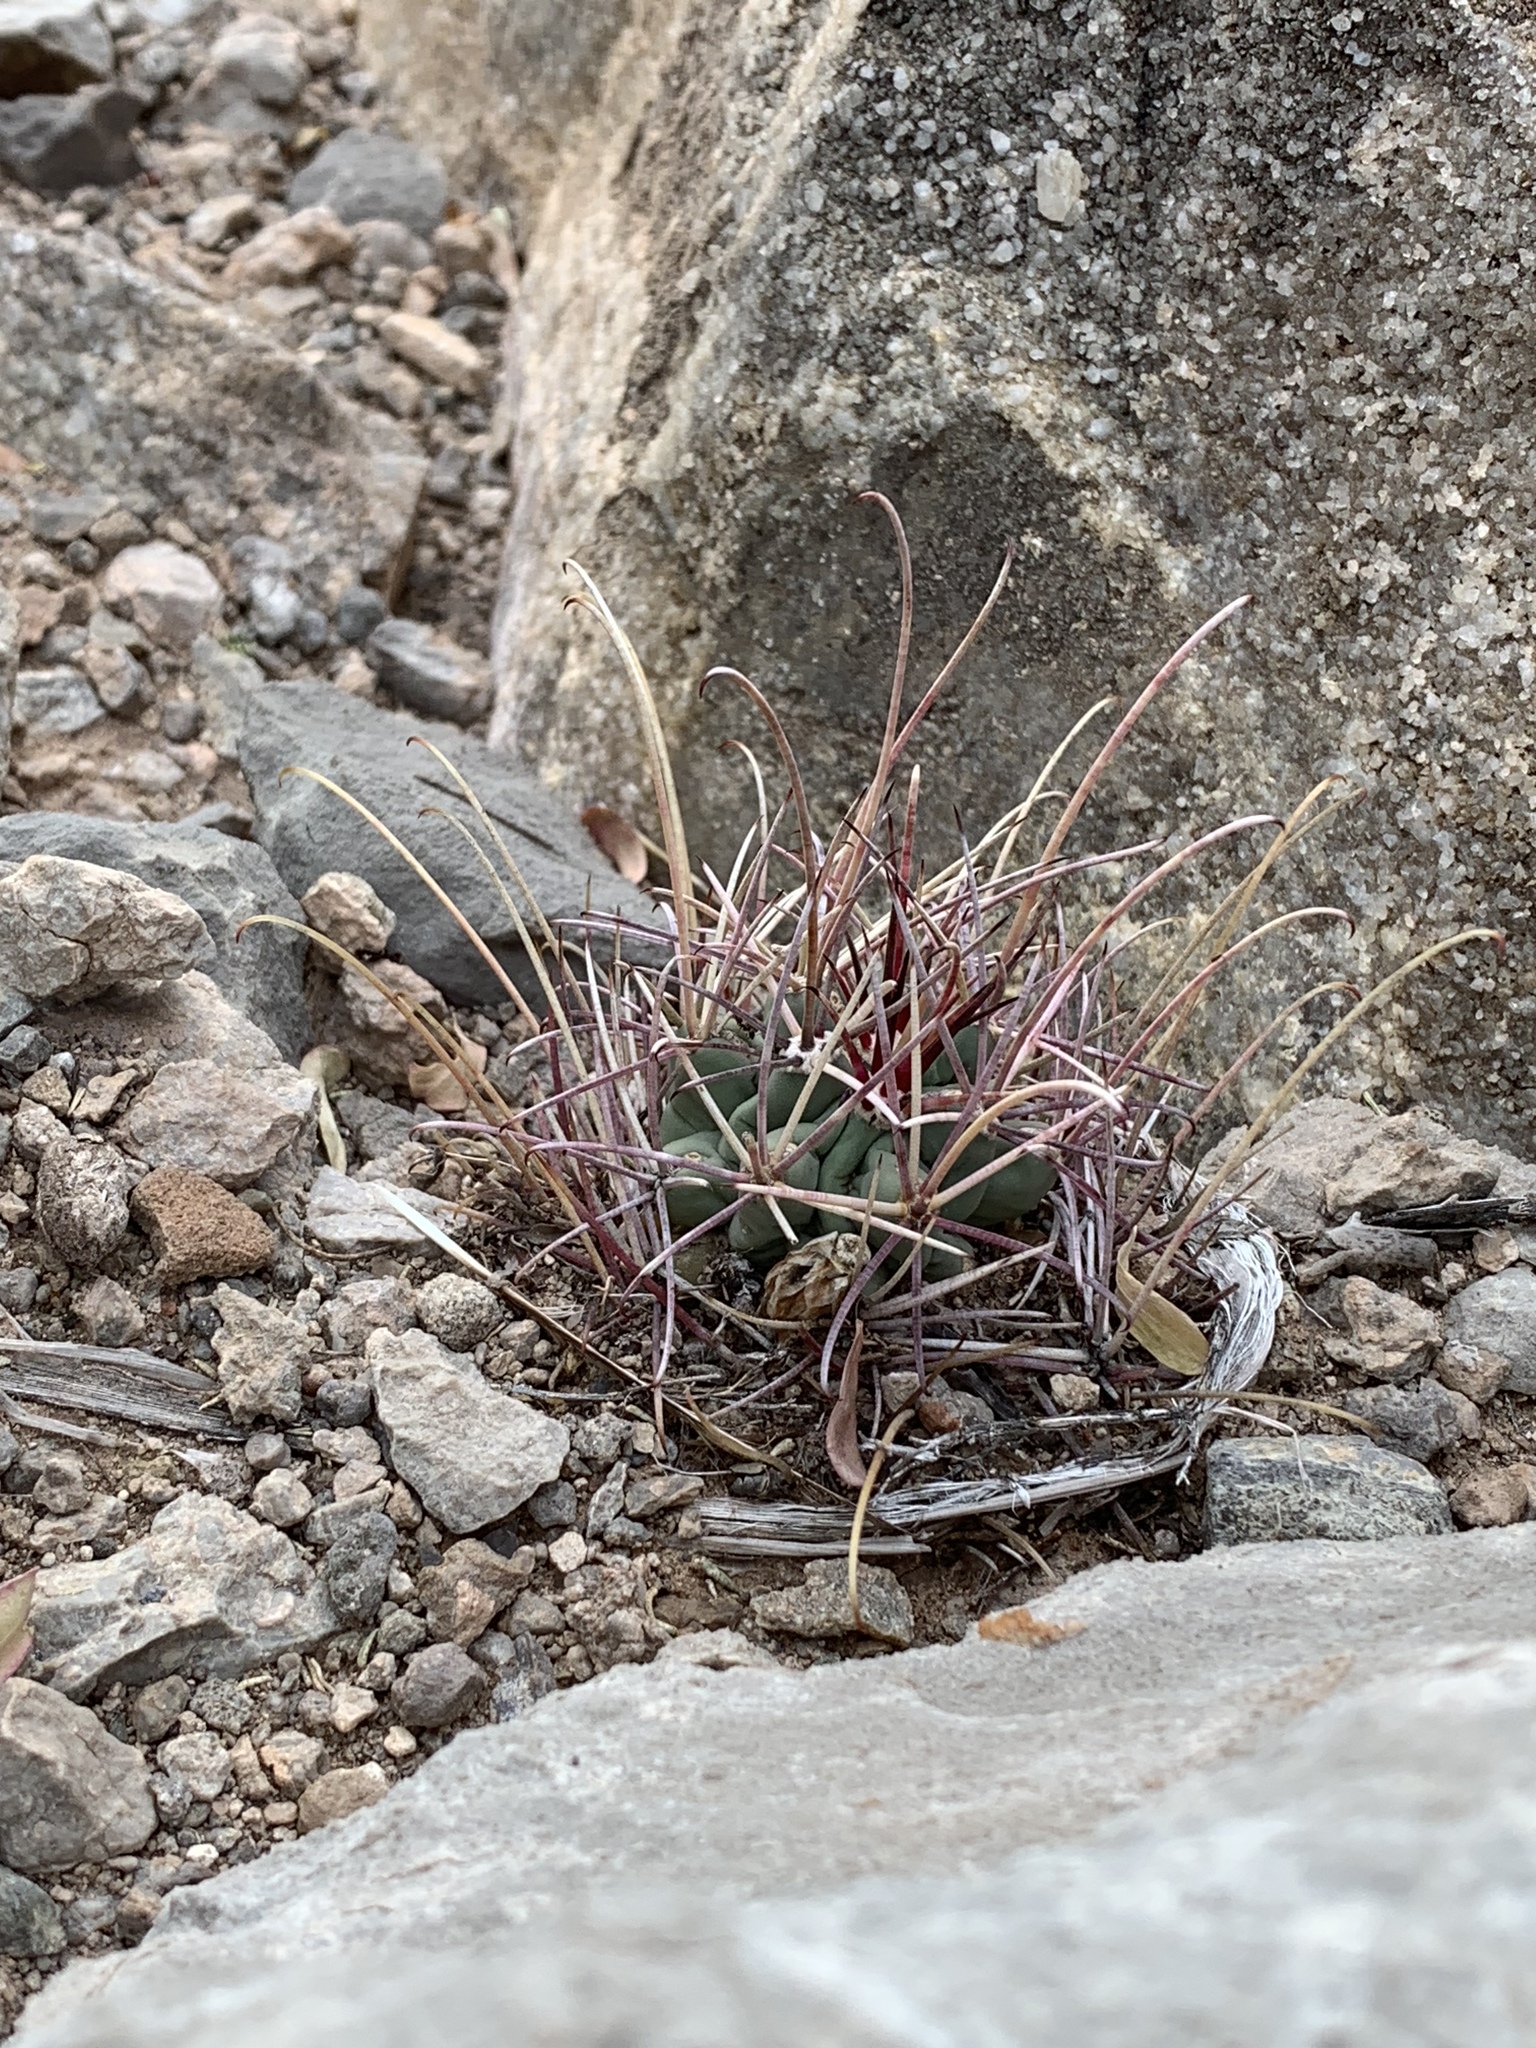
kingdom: Plantae
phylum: Tracheophyta
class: Magnoliopsida
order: Caryophyllales
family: Cactaceae
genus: Ferocactus
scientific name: Ferocactus uncinatus
